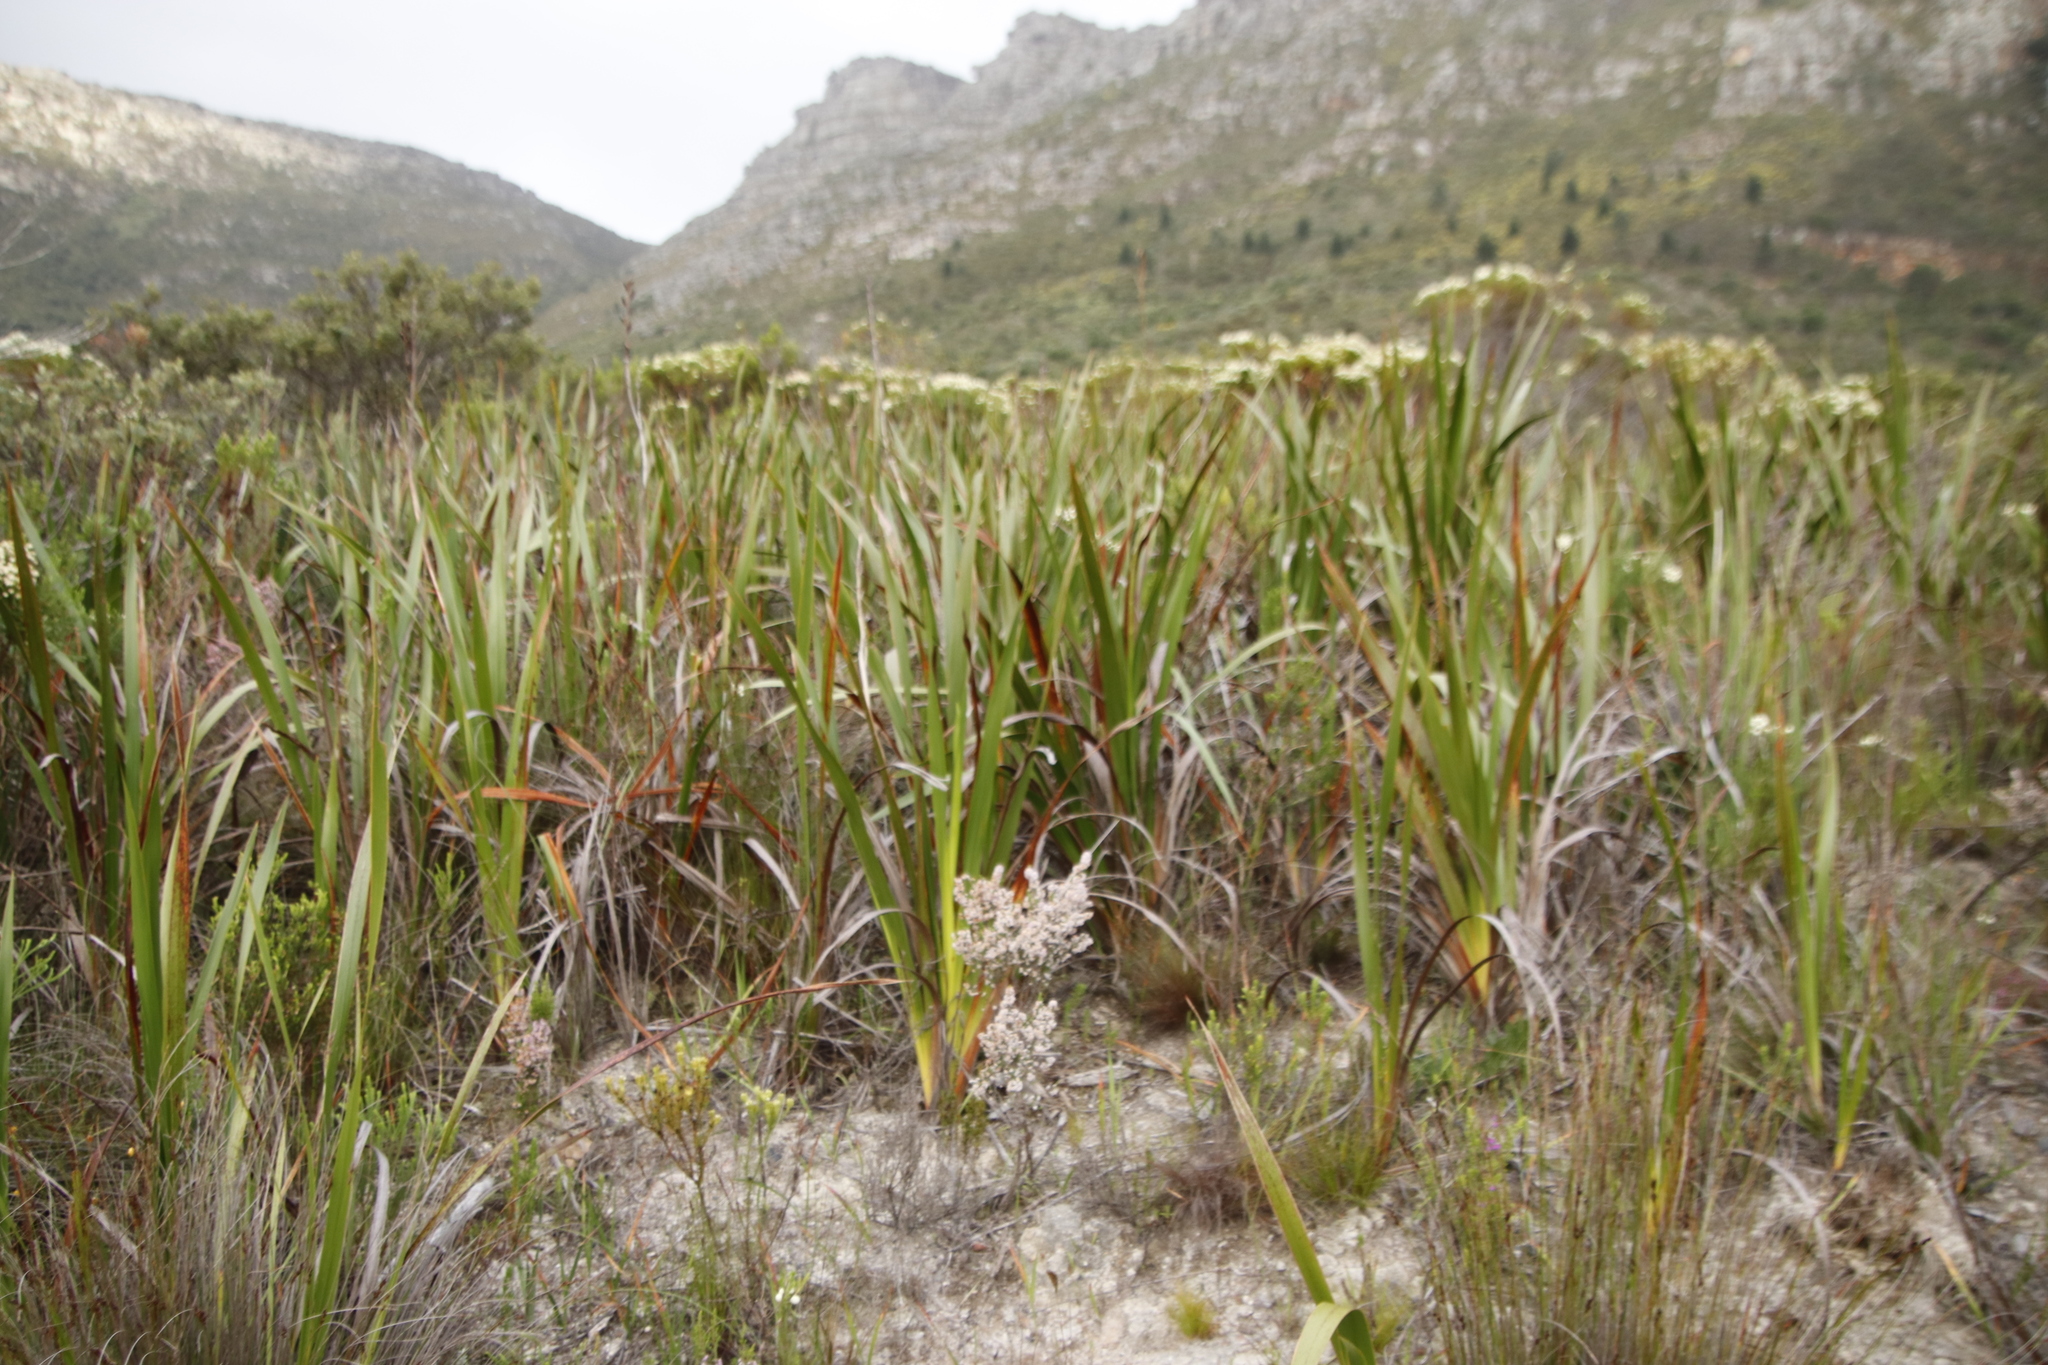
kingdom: Plantae
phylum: Tracheophyta
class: Liliopsida
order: Asparagales
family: Iridaceae
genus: Aristea
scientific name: Aristea capitata
